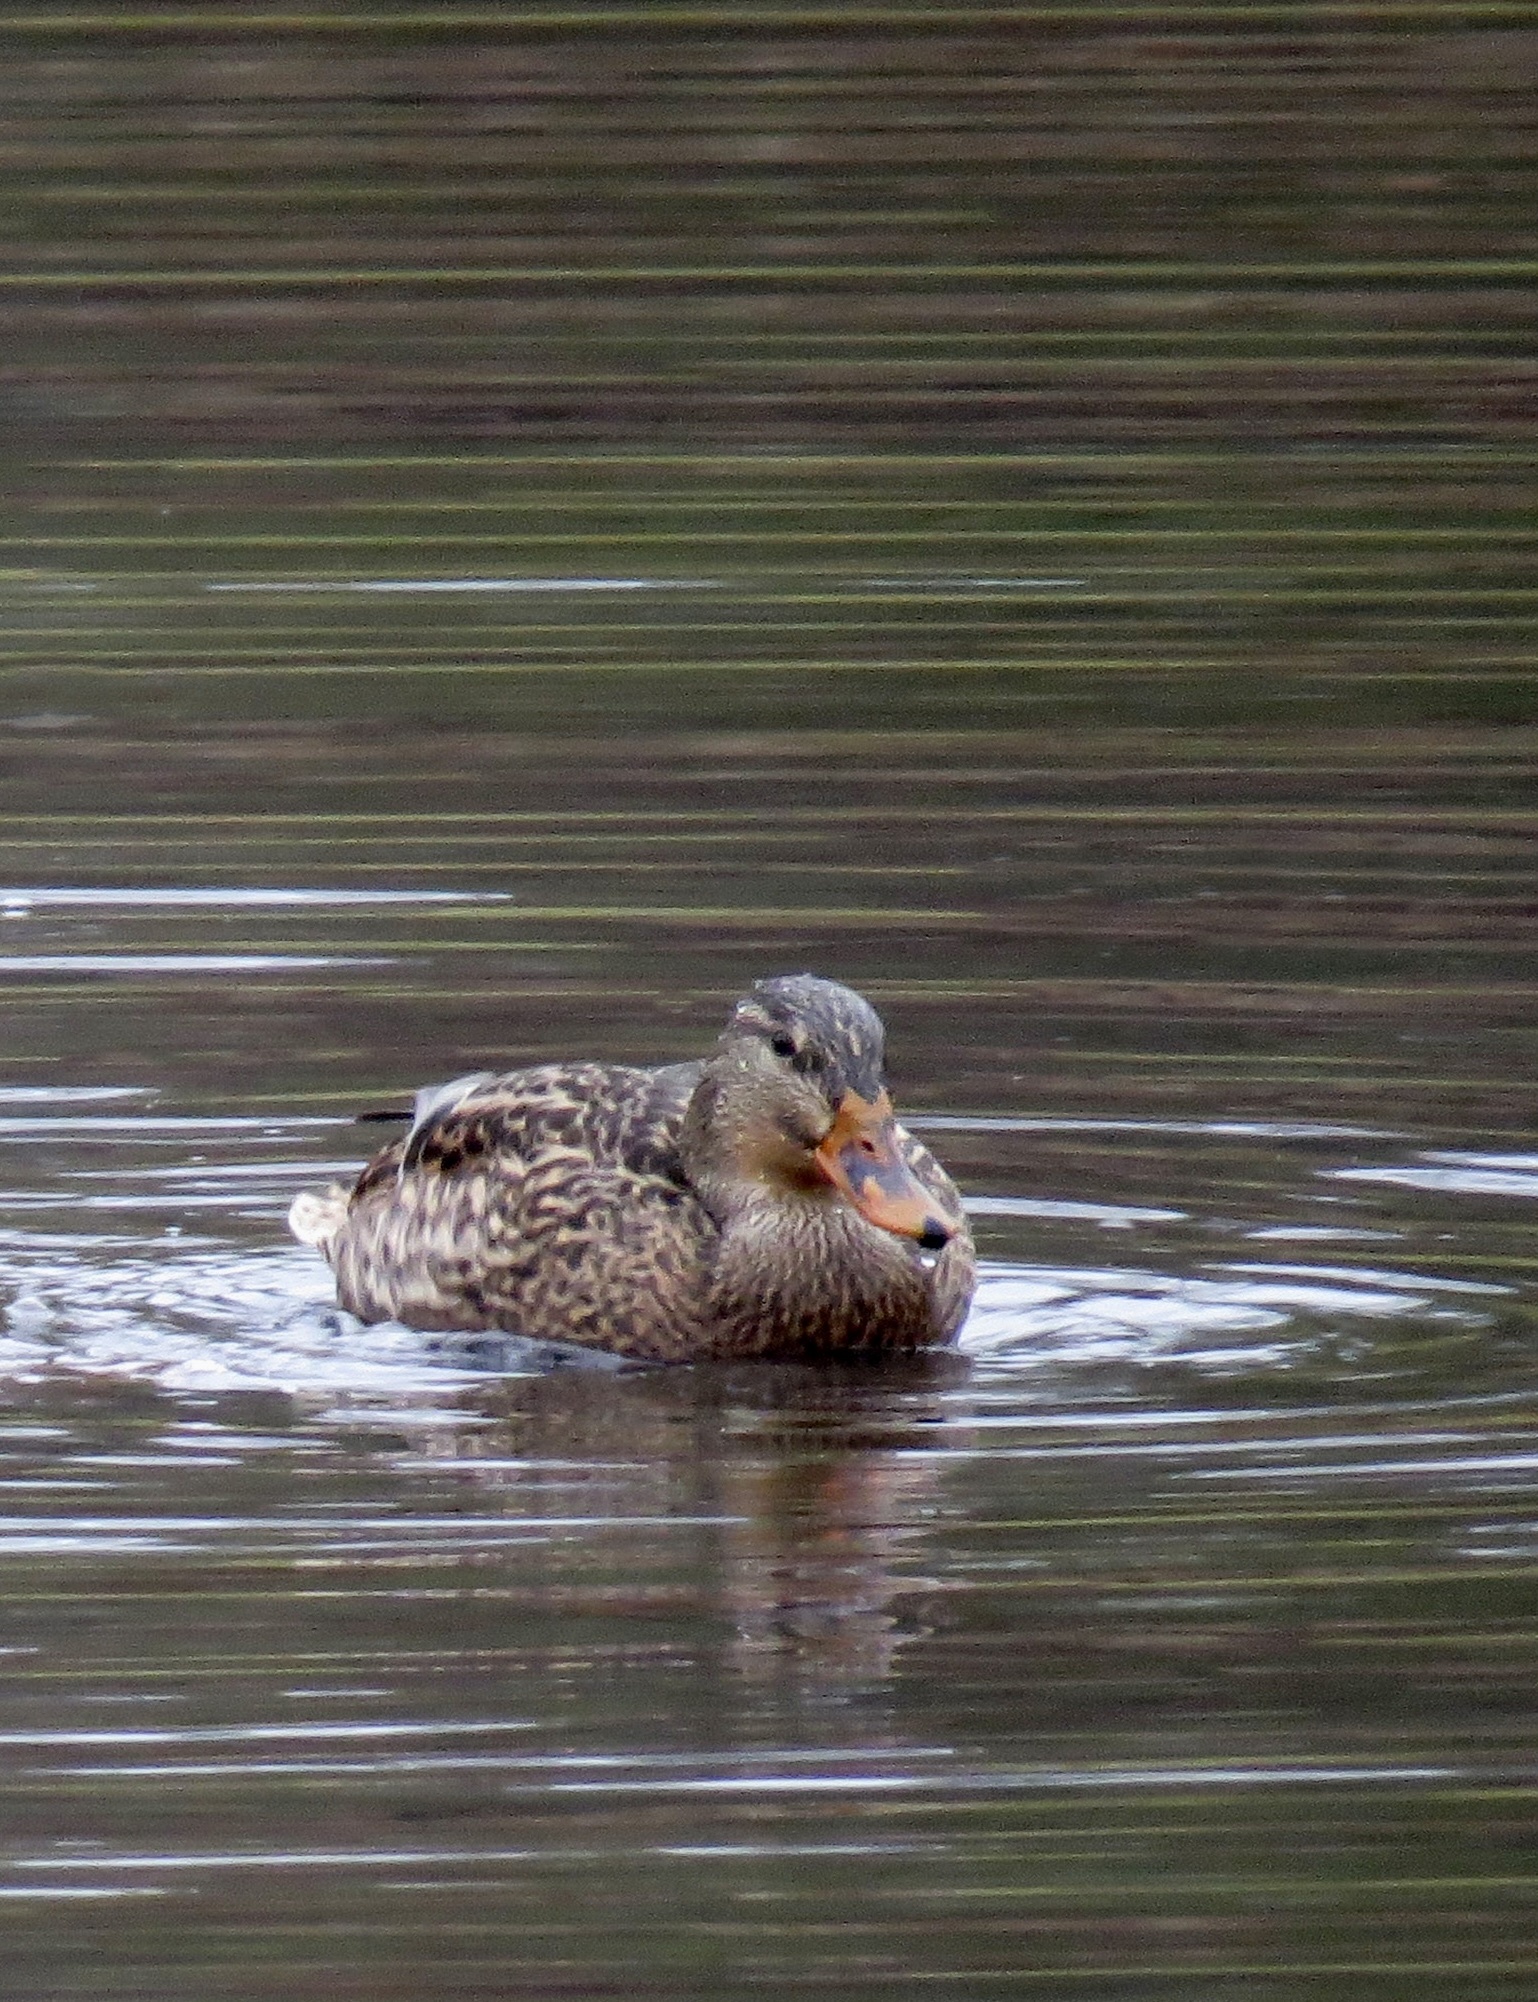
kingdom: Animalia
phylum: Chordata
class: Aves
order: Anseriformes
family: Anatidae
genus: Anas
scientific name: Anas platyrhynchos
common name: Mallard
